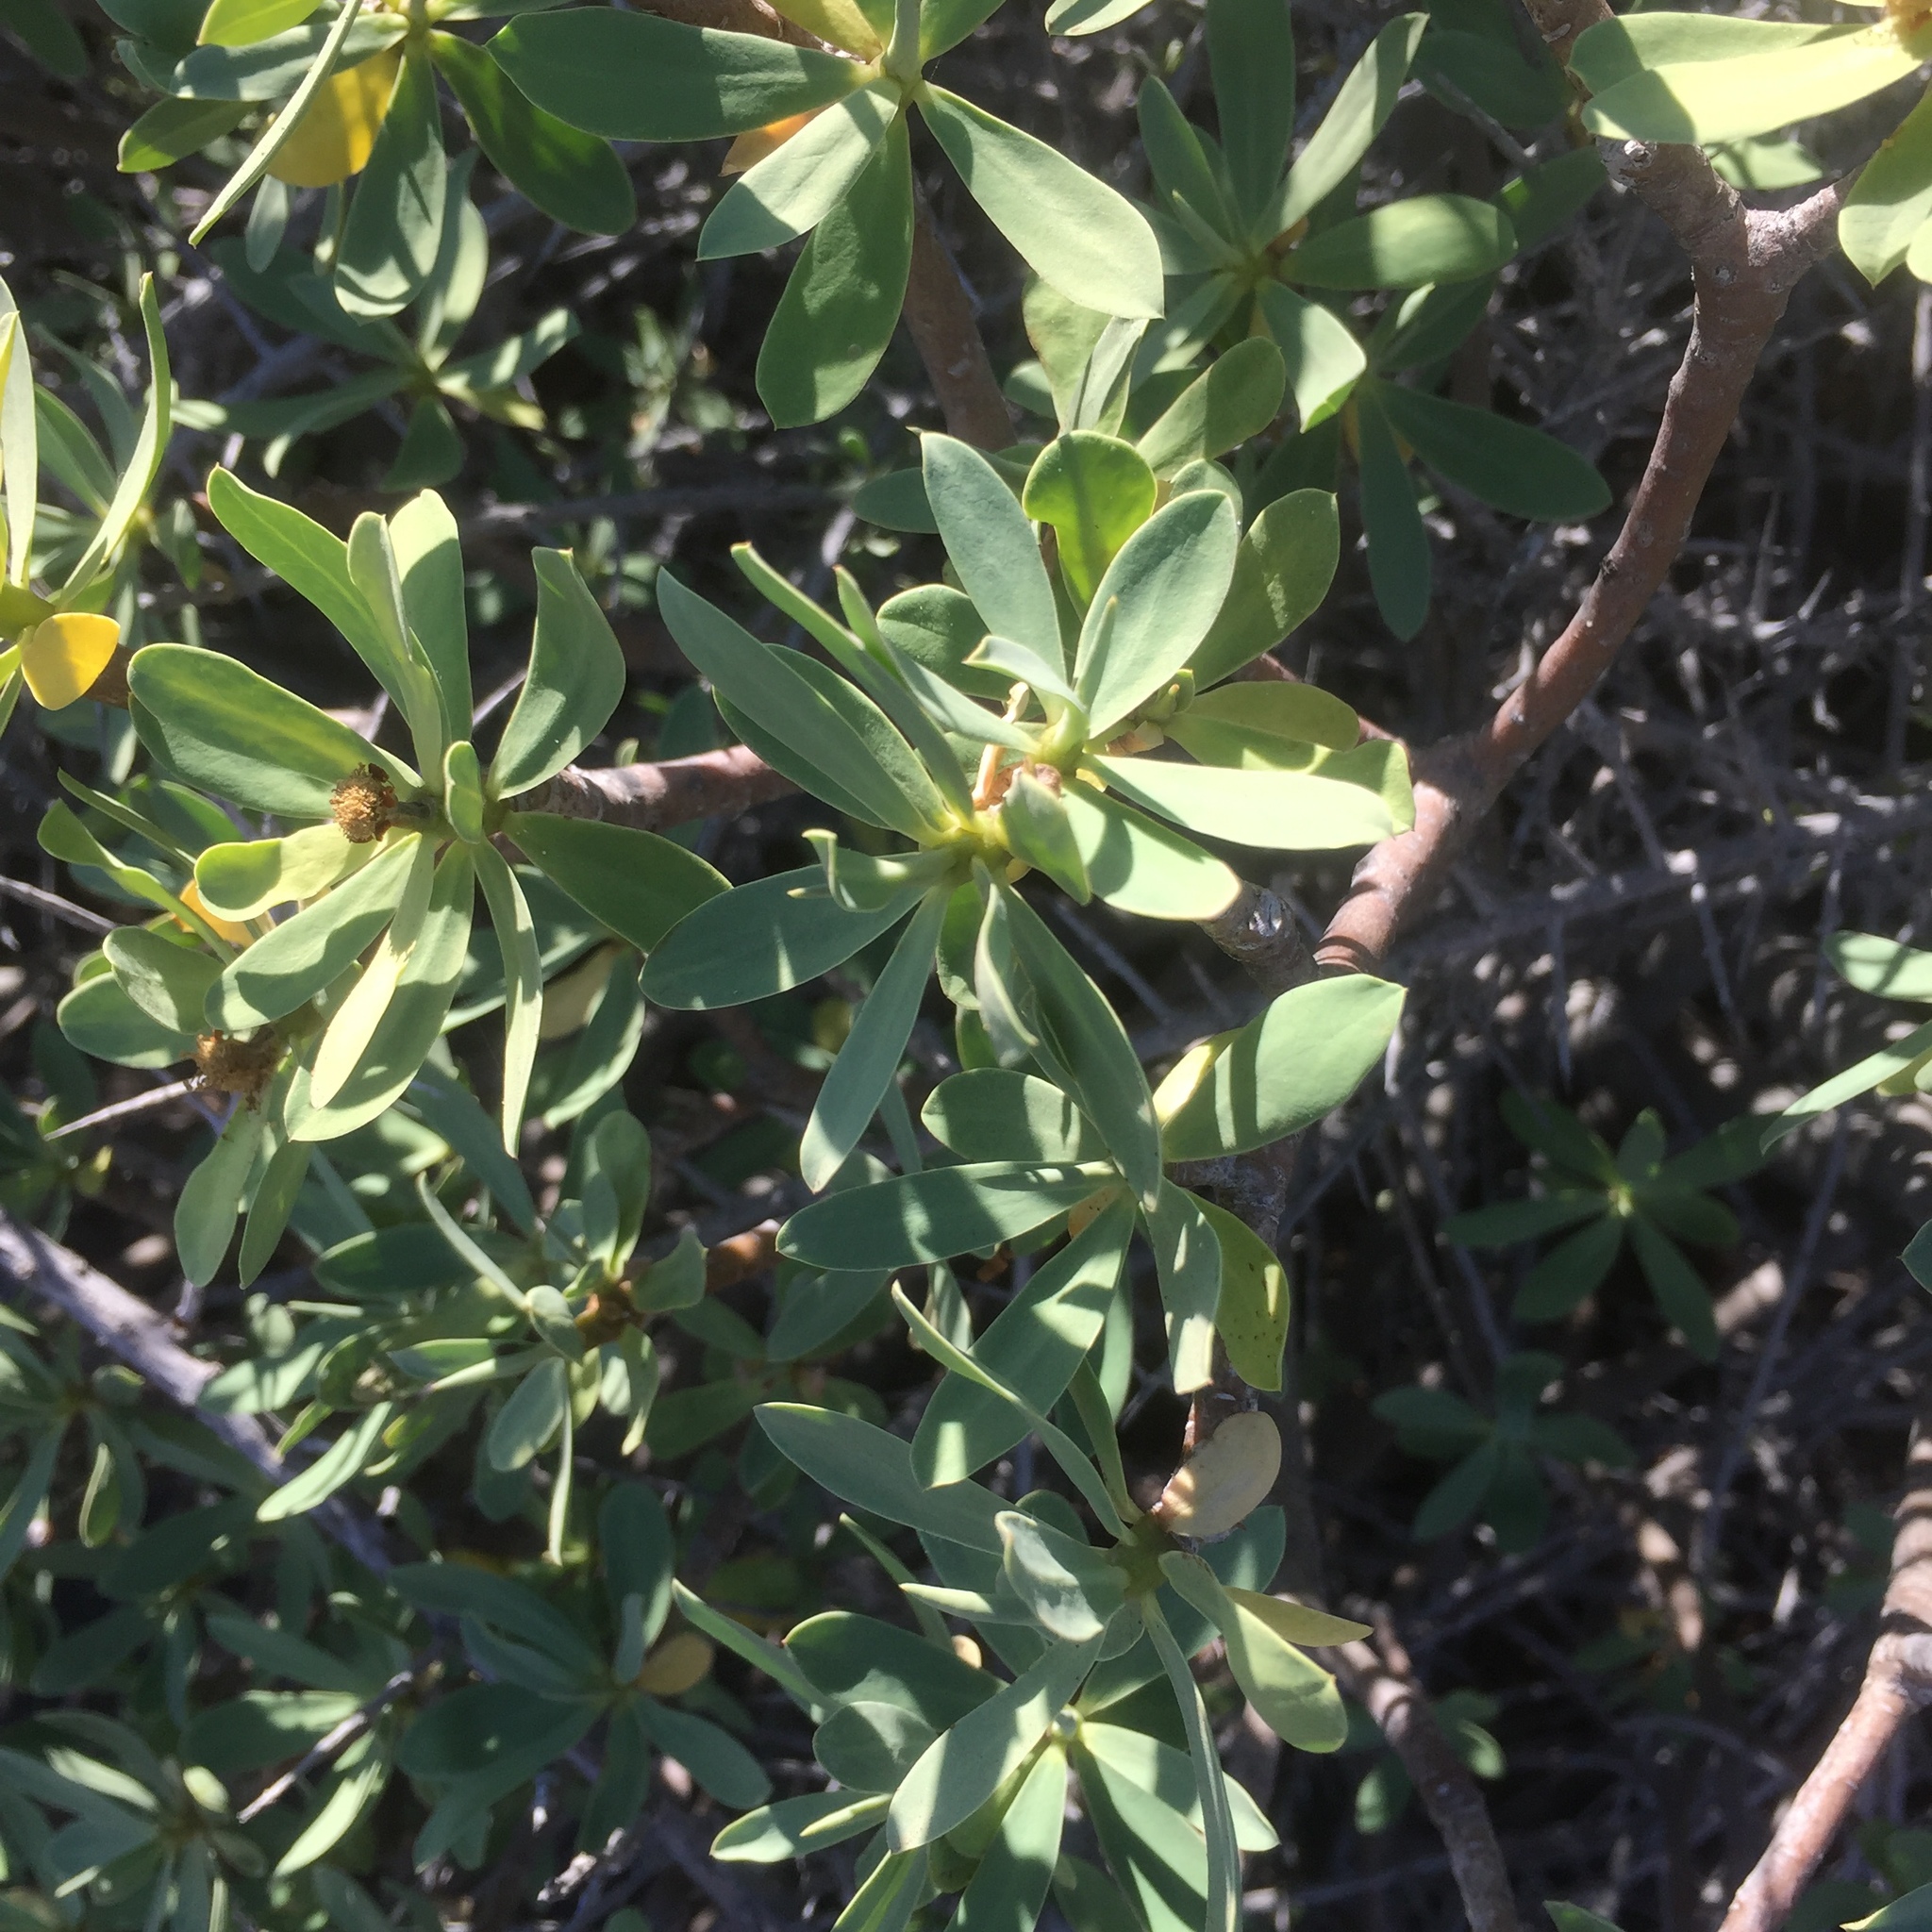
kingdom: Plantae
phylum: Tracheophyta
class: Magnoliopsida
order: Malpighiales
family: Euphorbiaceae
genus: Euphorbia
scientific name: Euphorbia balsamifera
